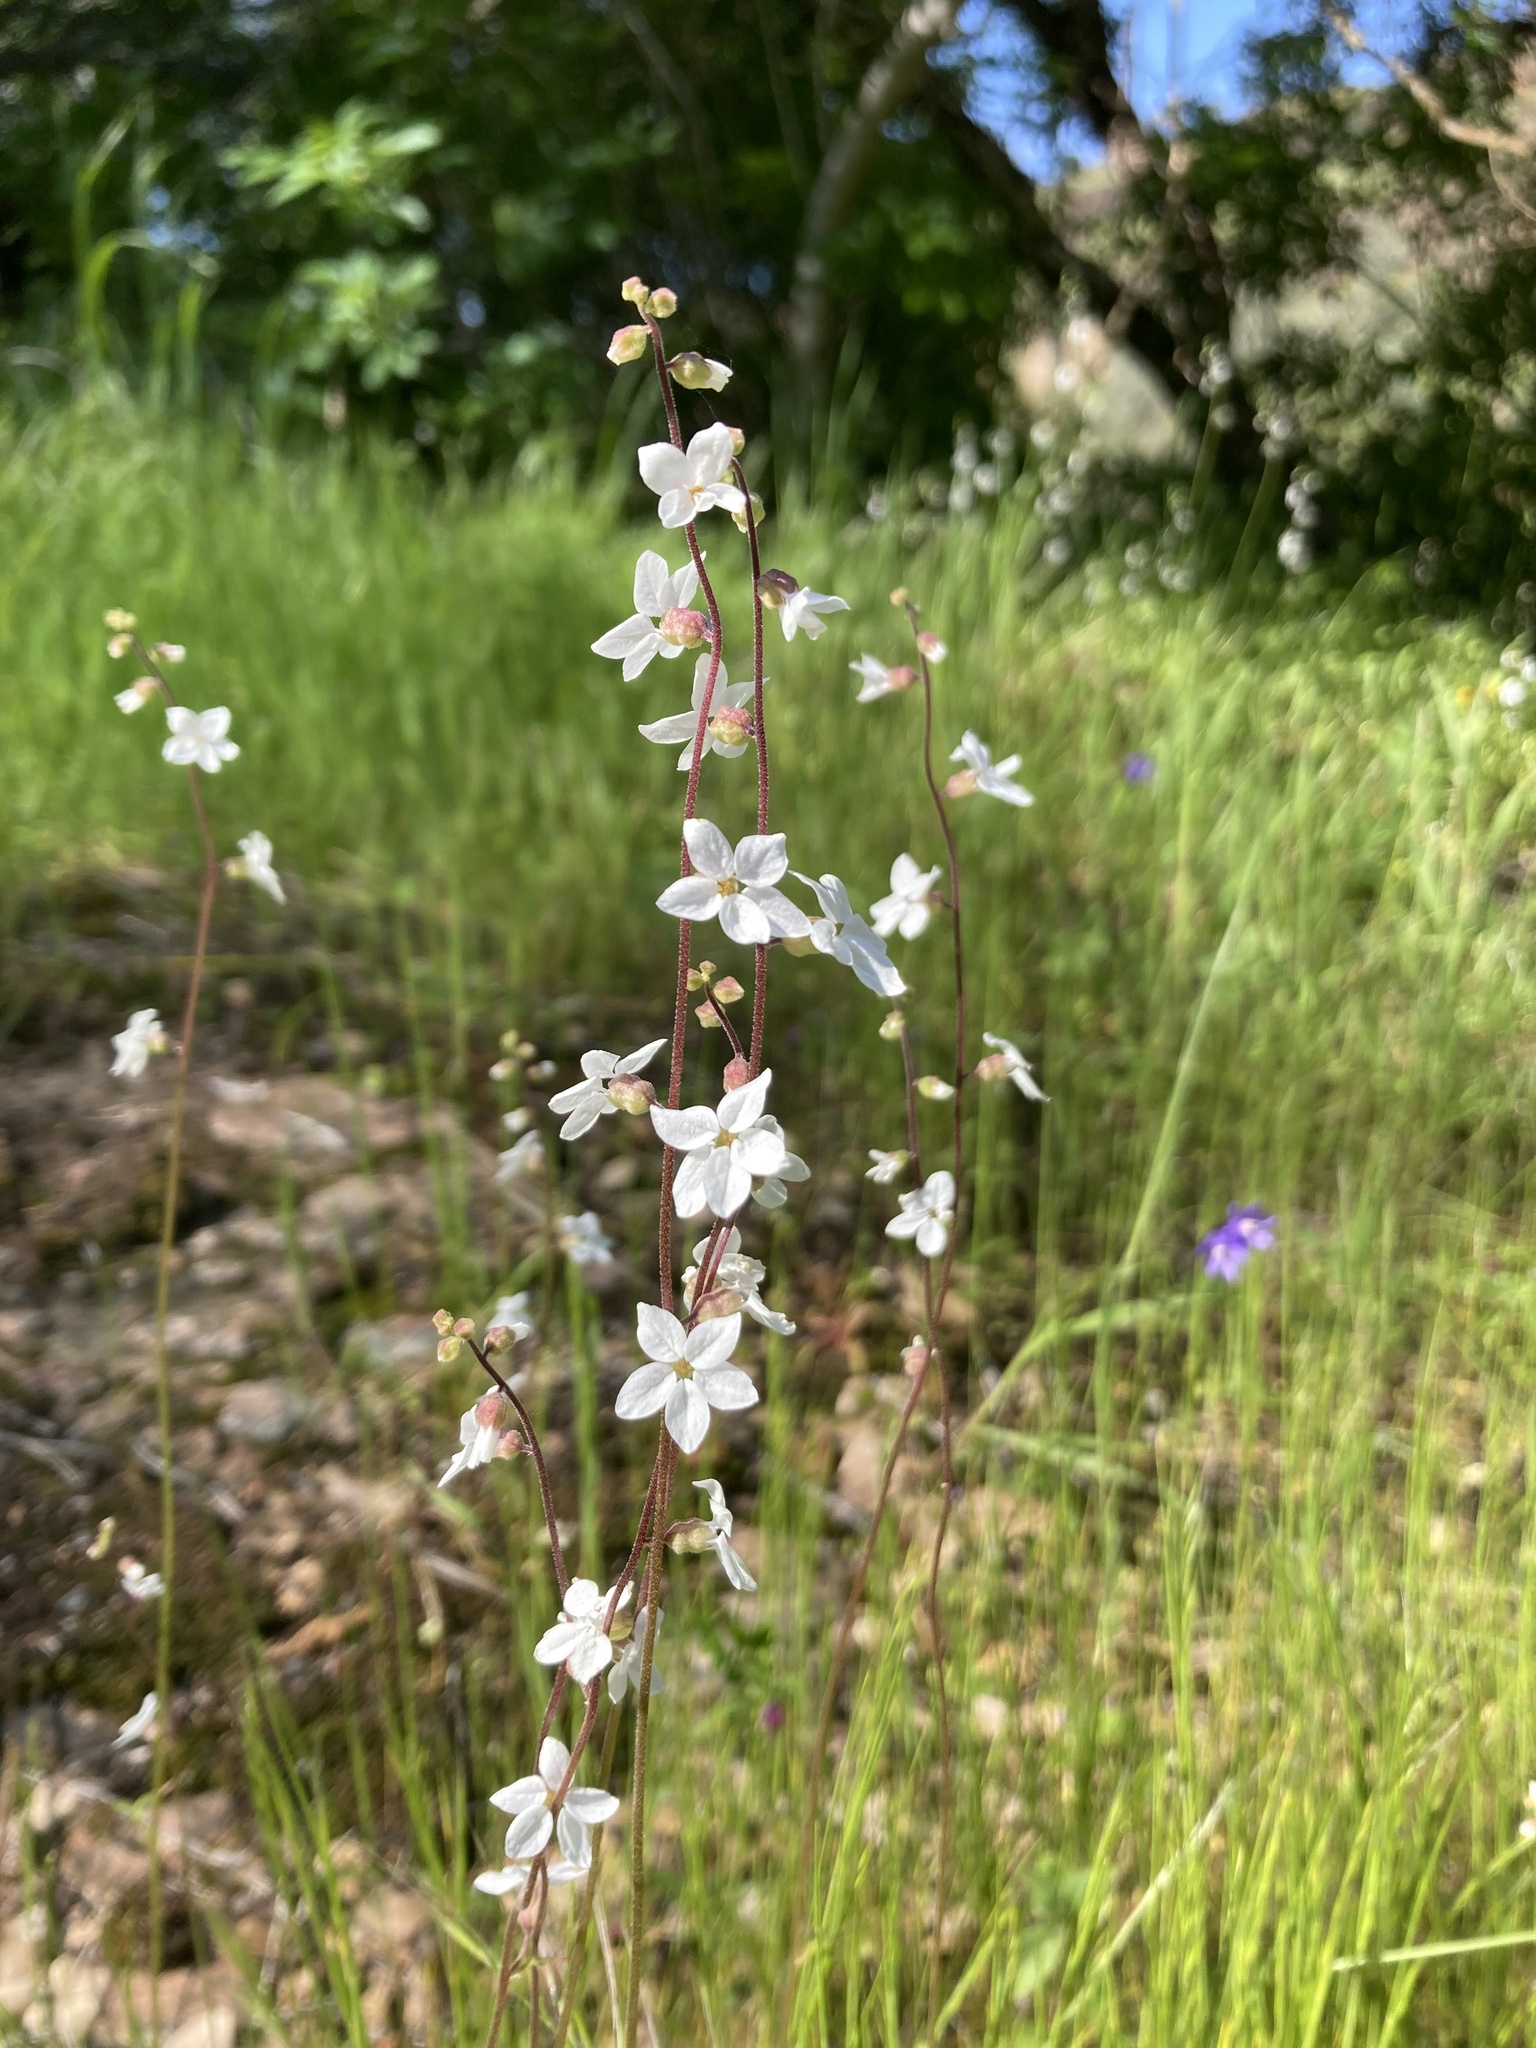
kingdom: Plantae
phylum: Tracheophyta
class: Magnoliopsida
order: Saxifragales
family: Saxifragaceae
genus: Lithophragma
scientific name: Lithophragma bolanderi
